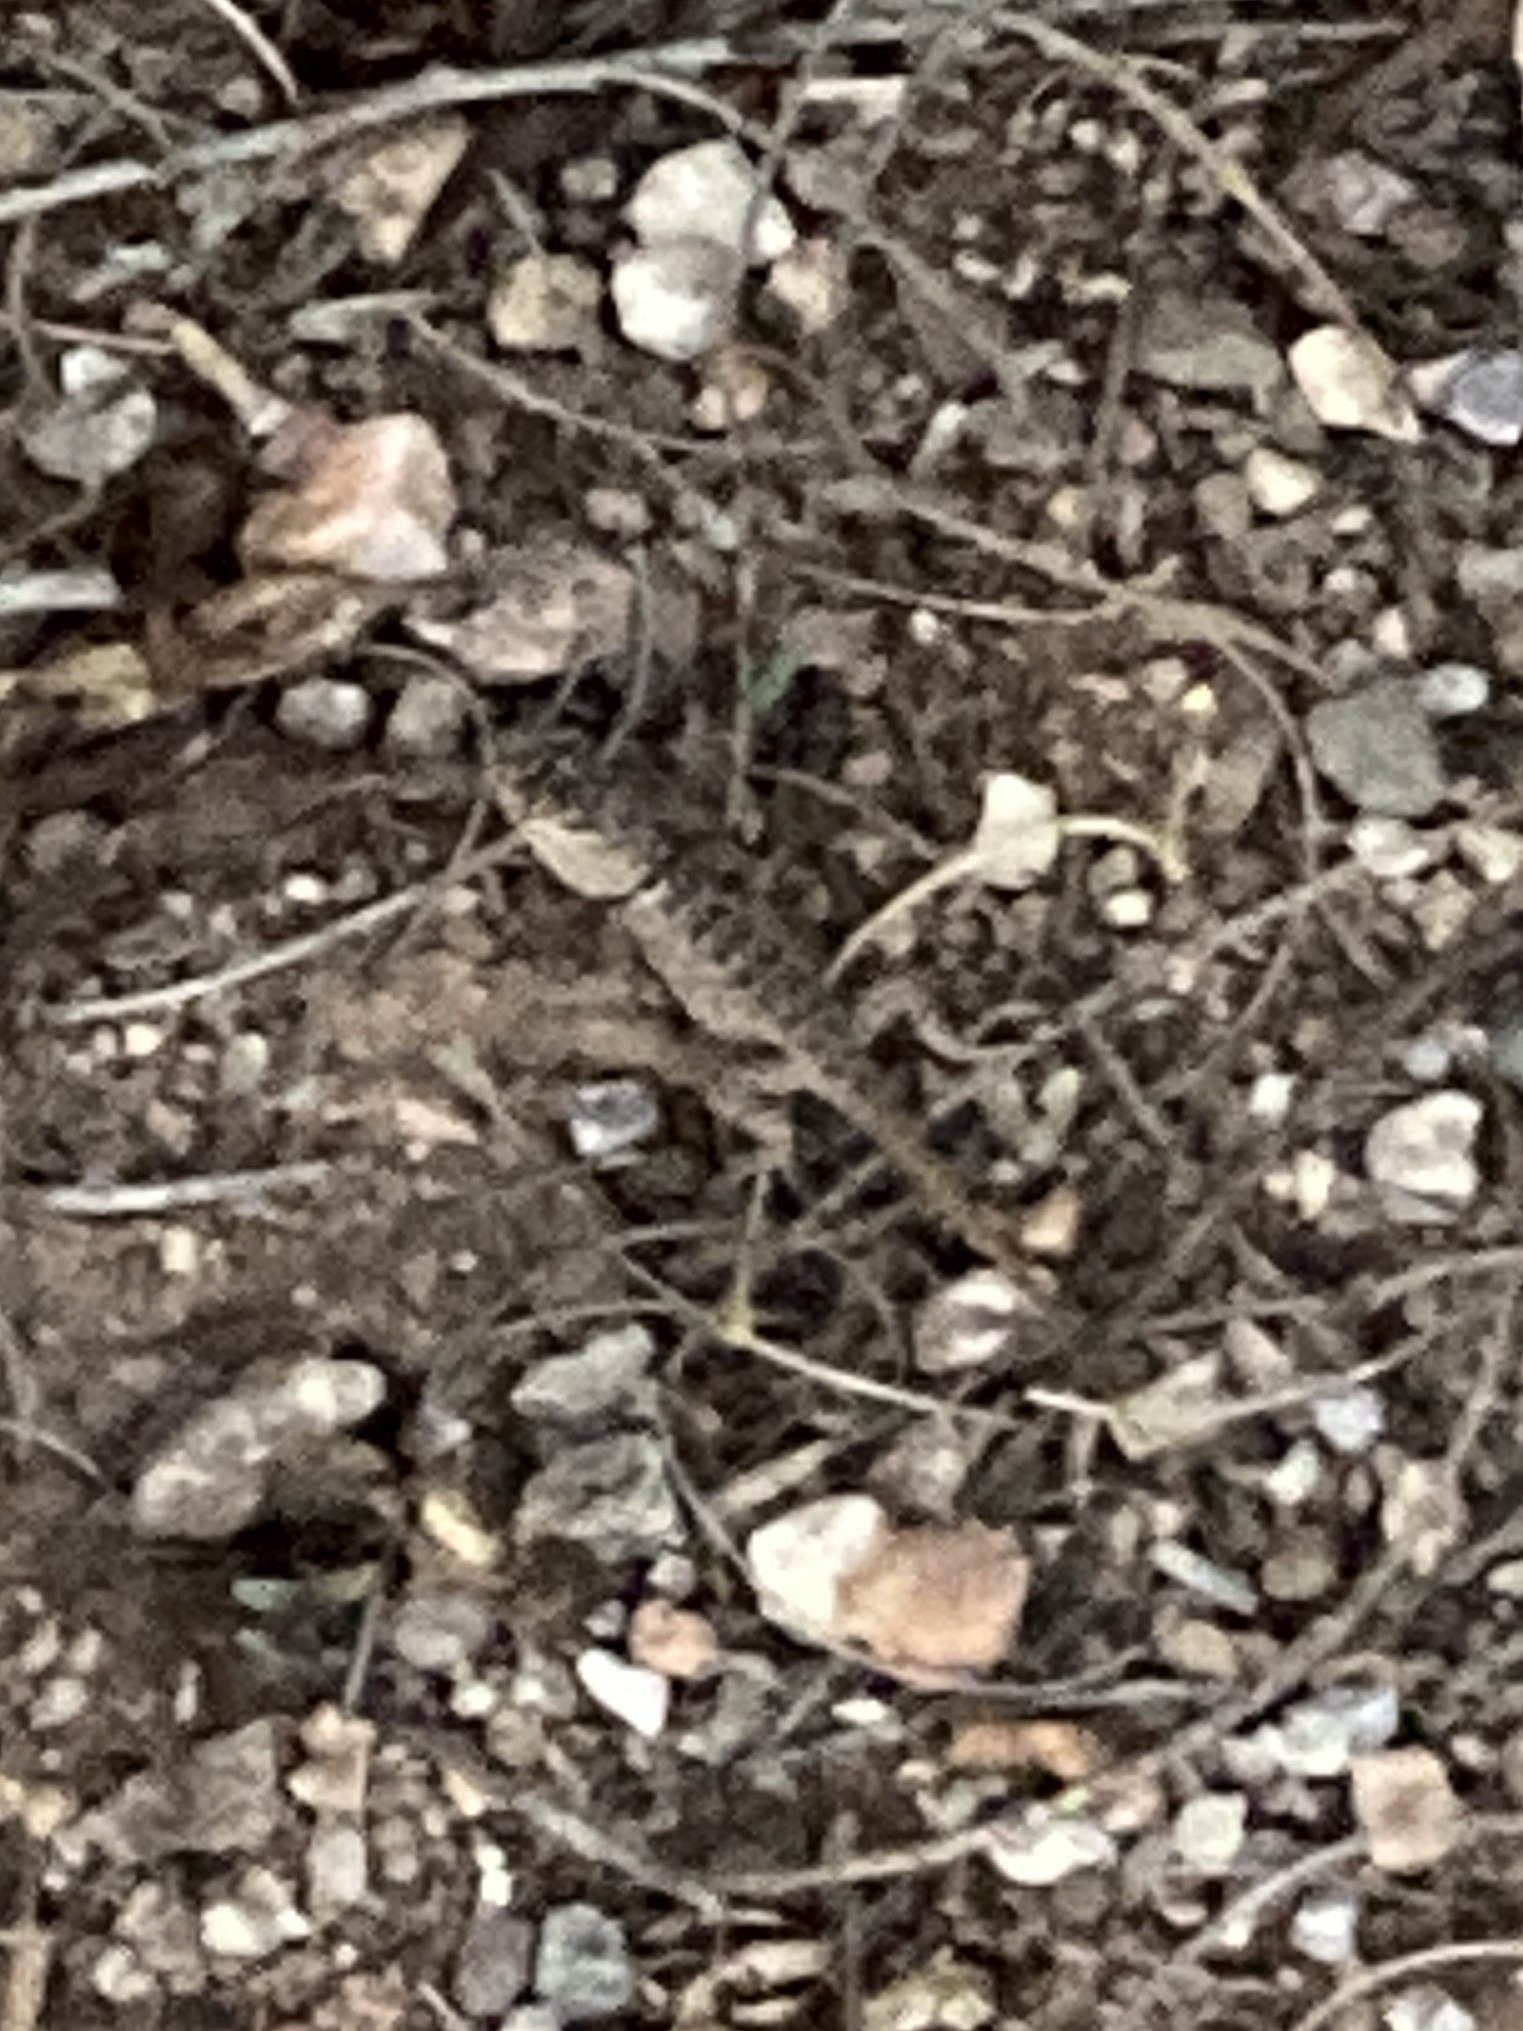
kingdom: Animalia
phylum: Chordata
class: Squamata
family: Phrynosomatidae
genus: Sceloporus
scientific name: Sceloporus magister
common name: Desert spiny lizard
